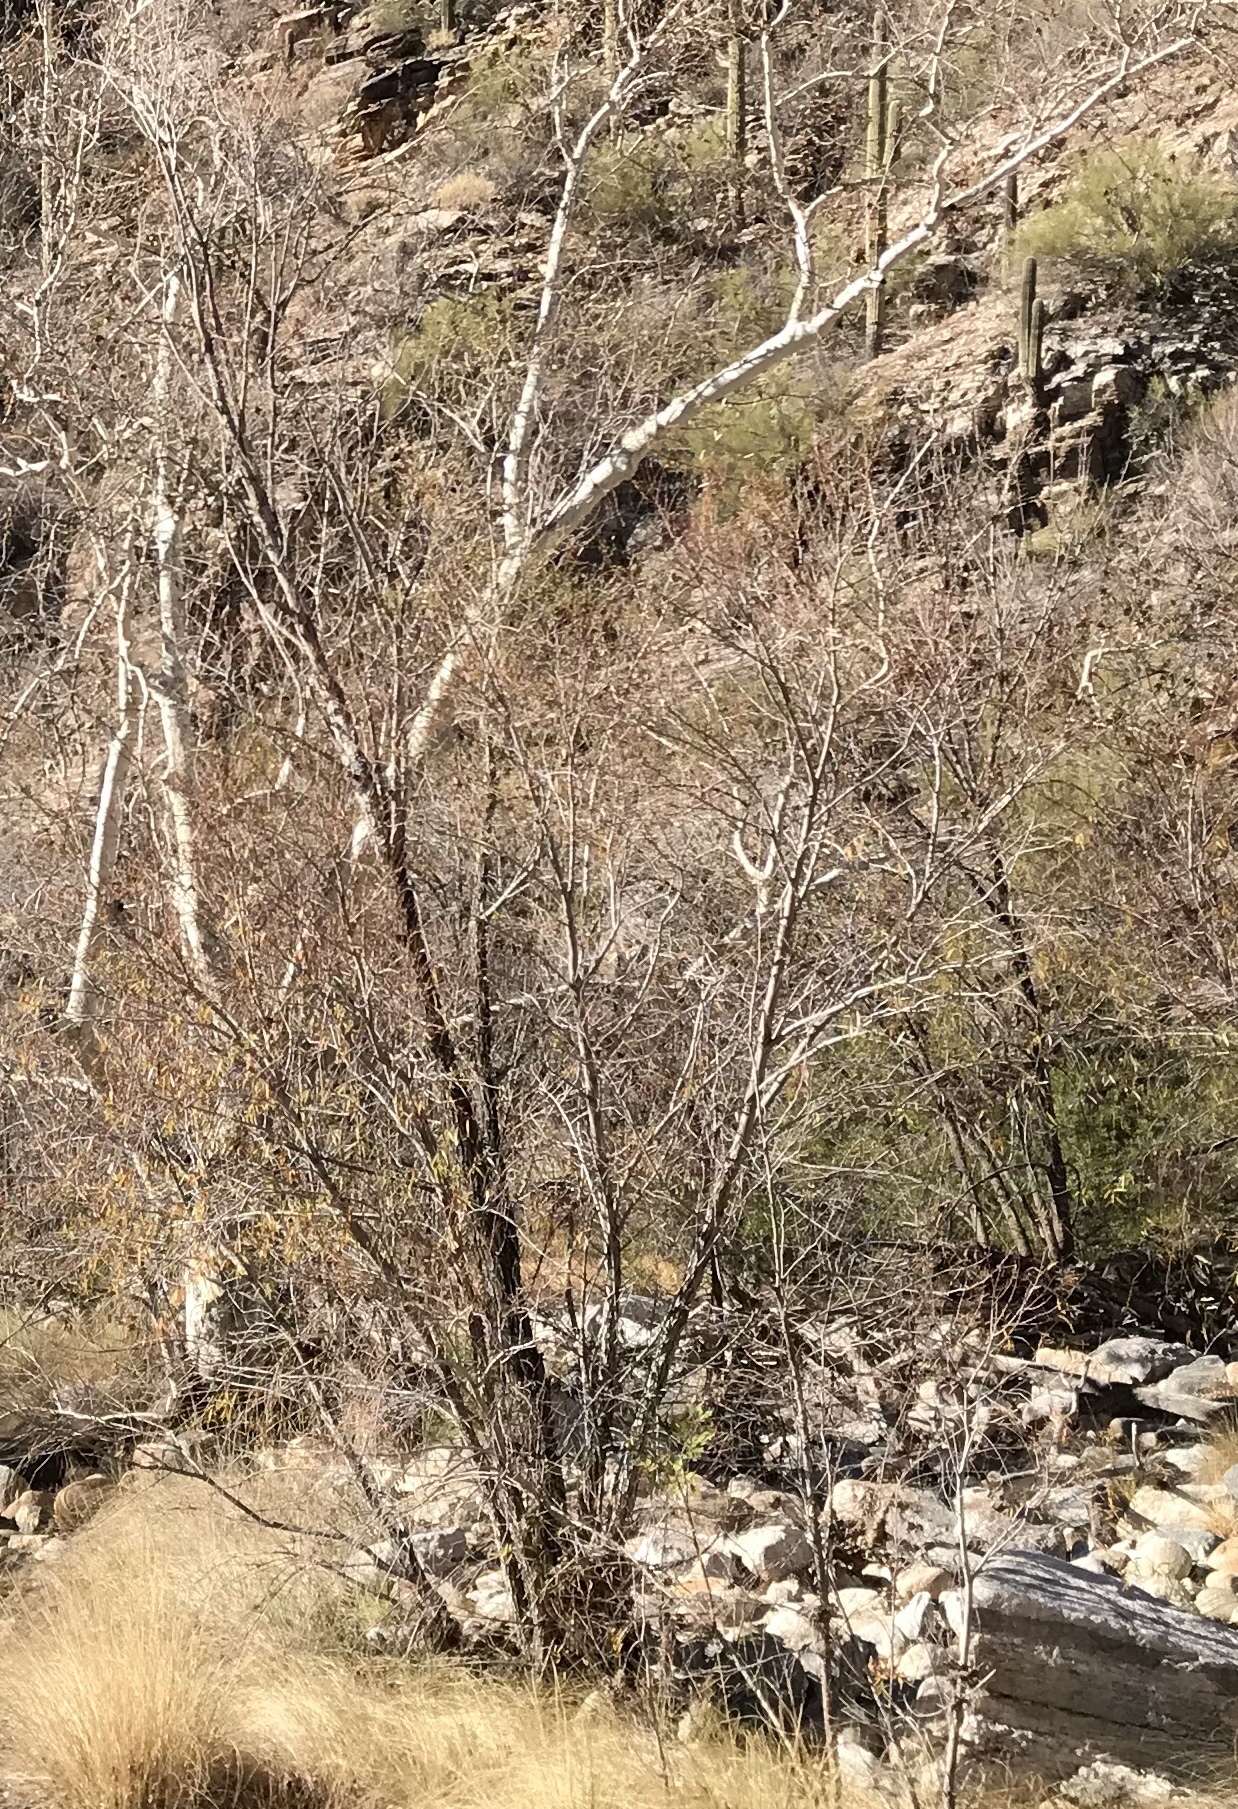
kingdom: Plantae
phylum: Tracheophyta
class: Magnoliopsida
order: Malpighiales
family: Salicaceae
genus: Populus
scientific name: Populus fremontii
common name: Fremont's cottonwood
